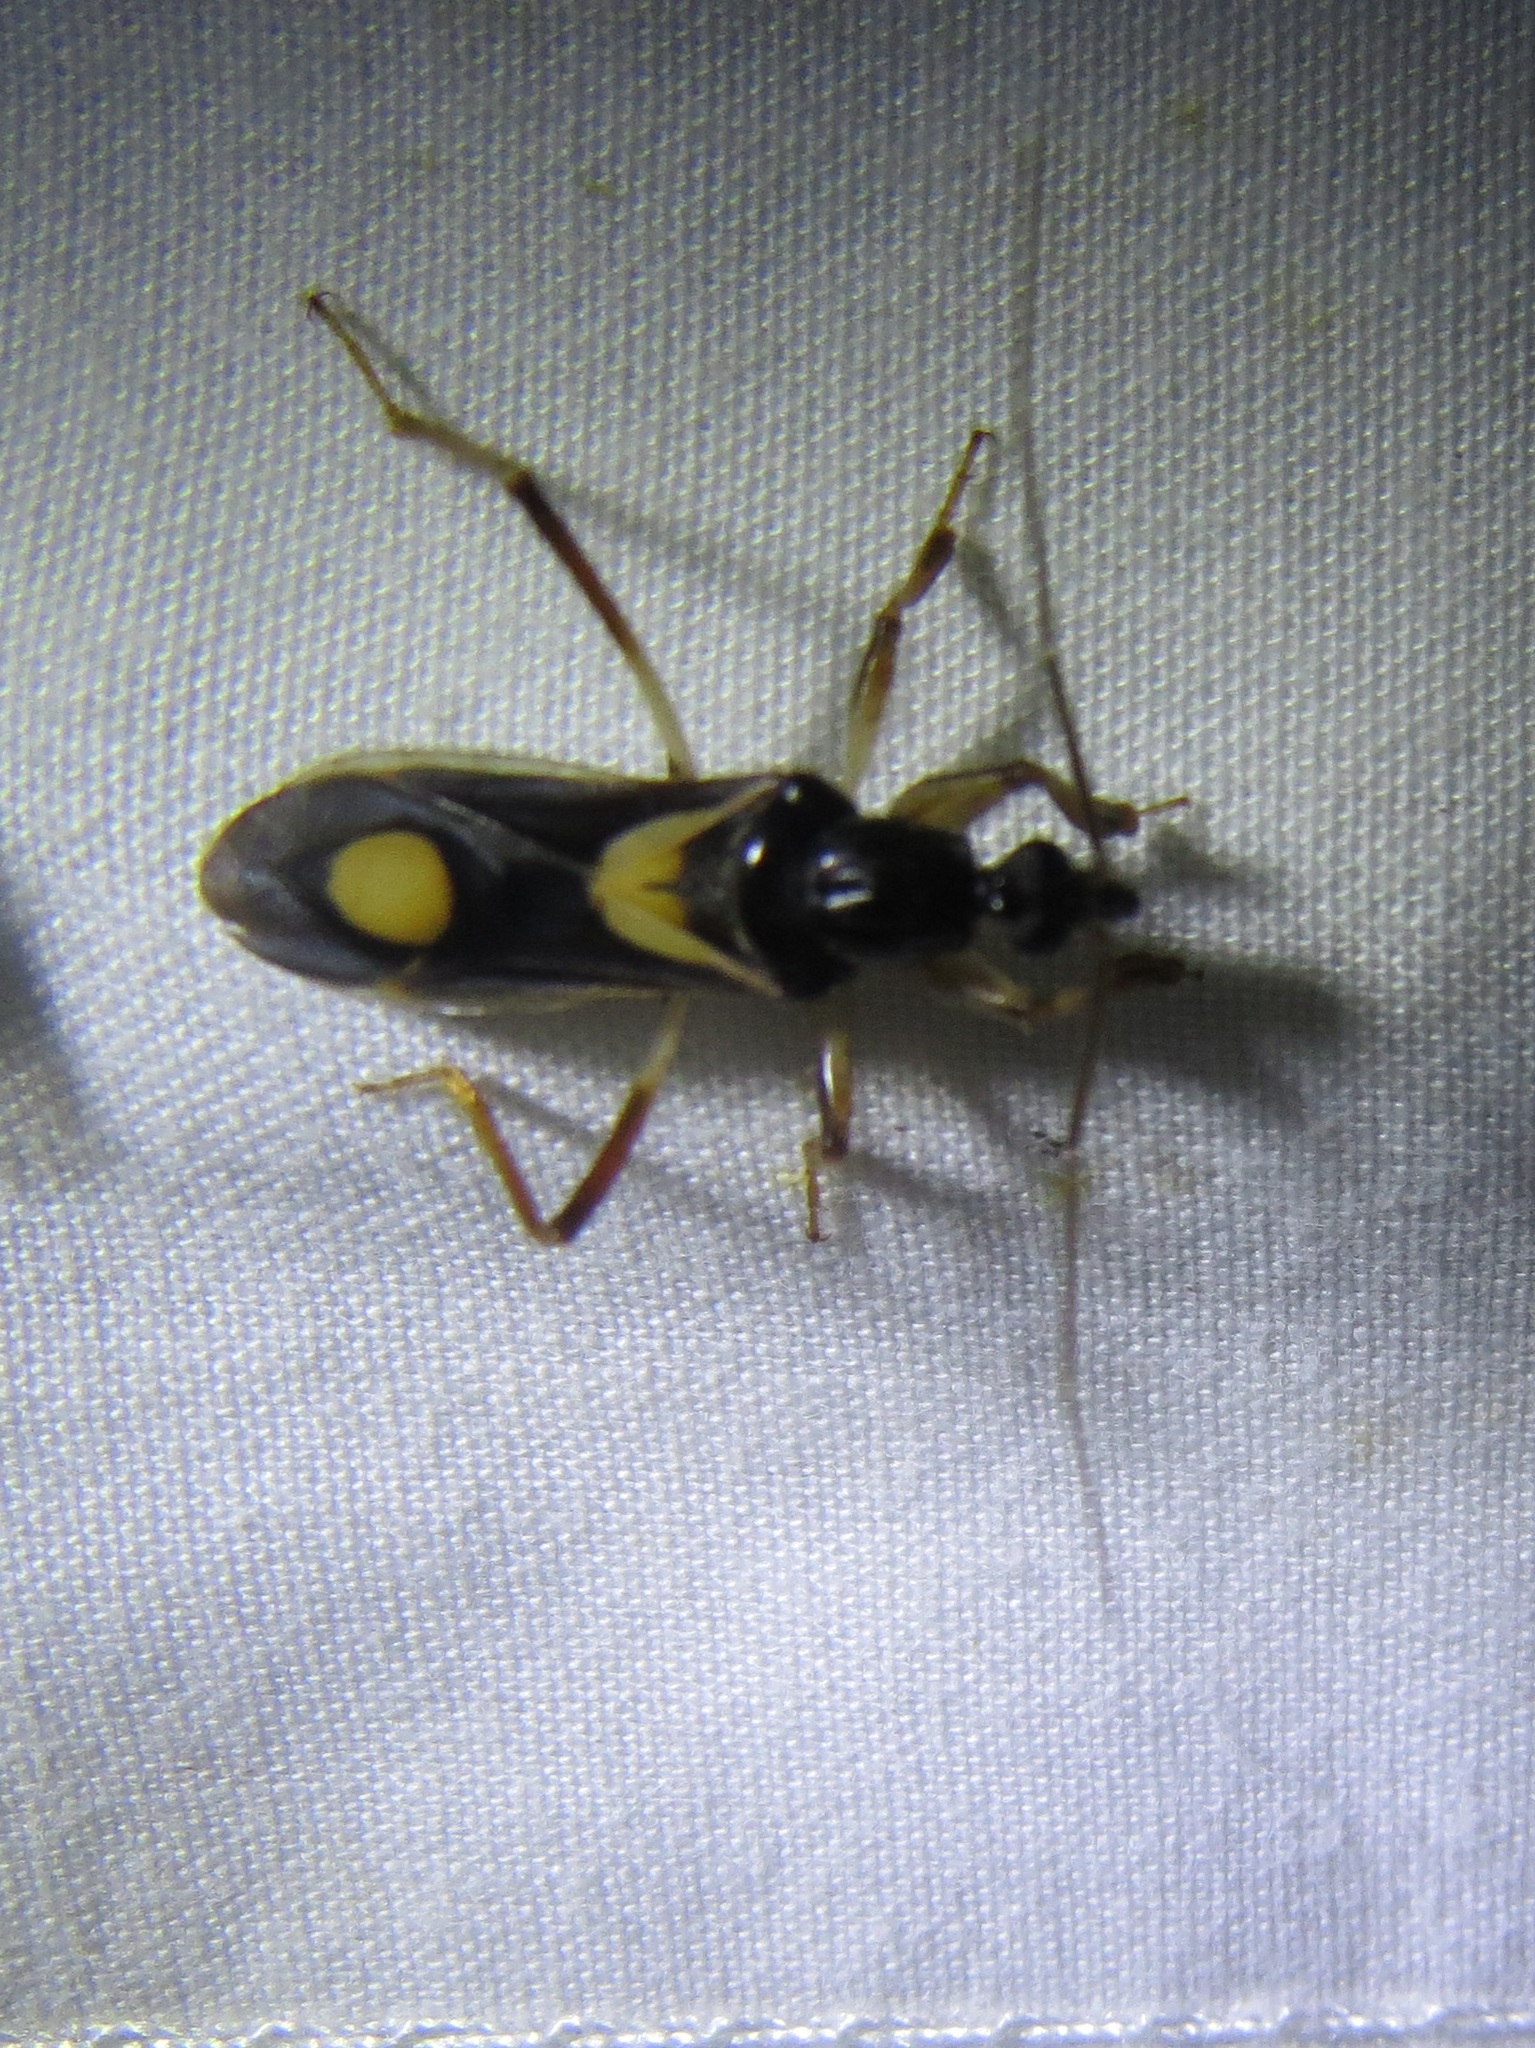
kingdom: Animalia
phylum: Arthropoda
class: Insecta
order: Hemiptera
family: Reduviidae
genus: Rasahus
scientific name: Rasahus hamatus
